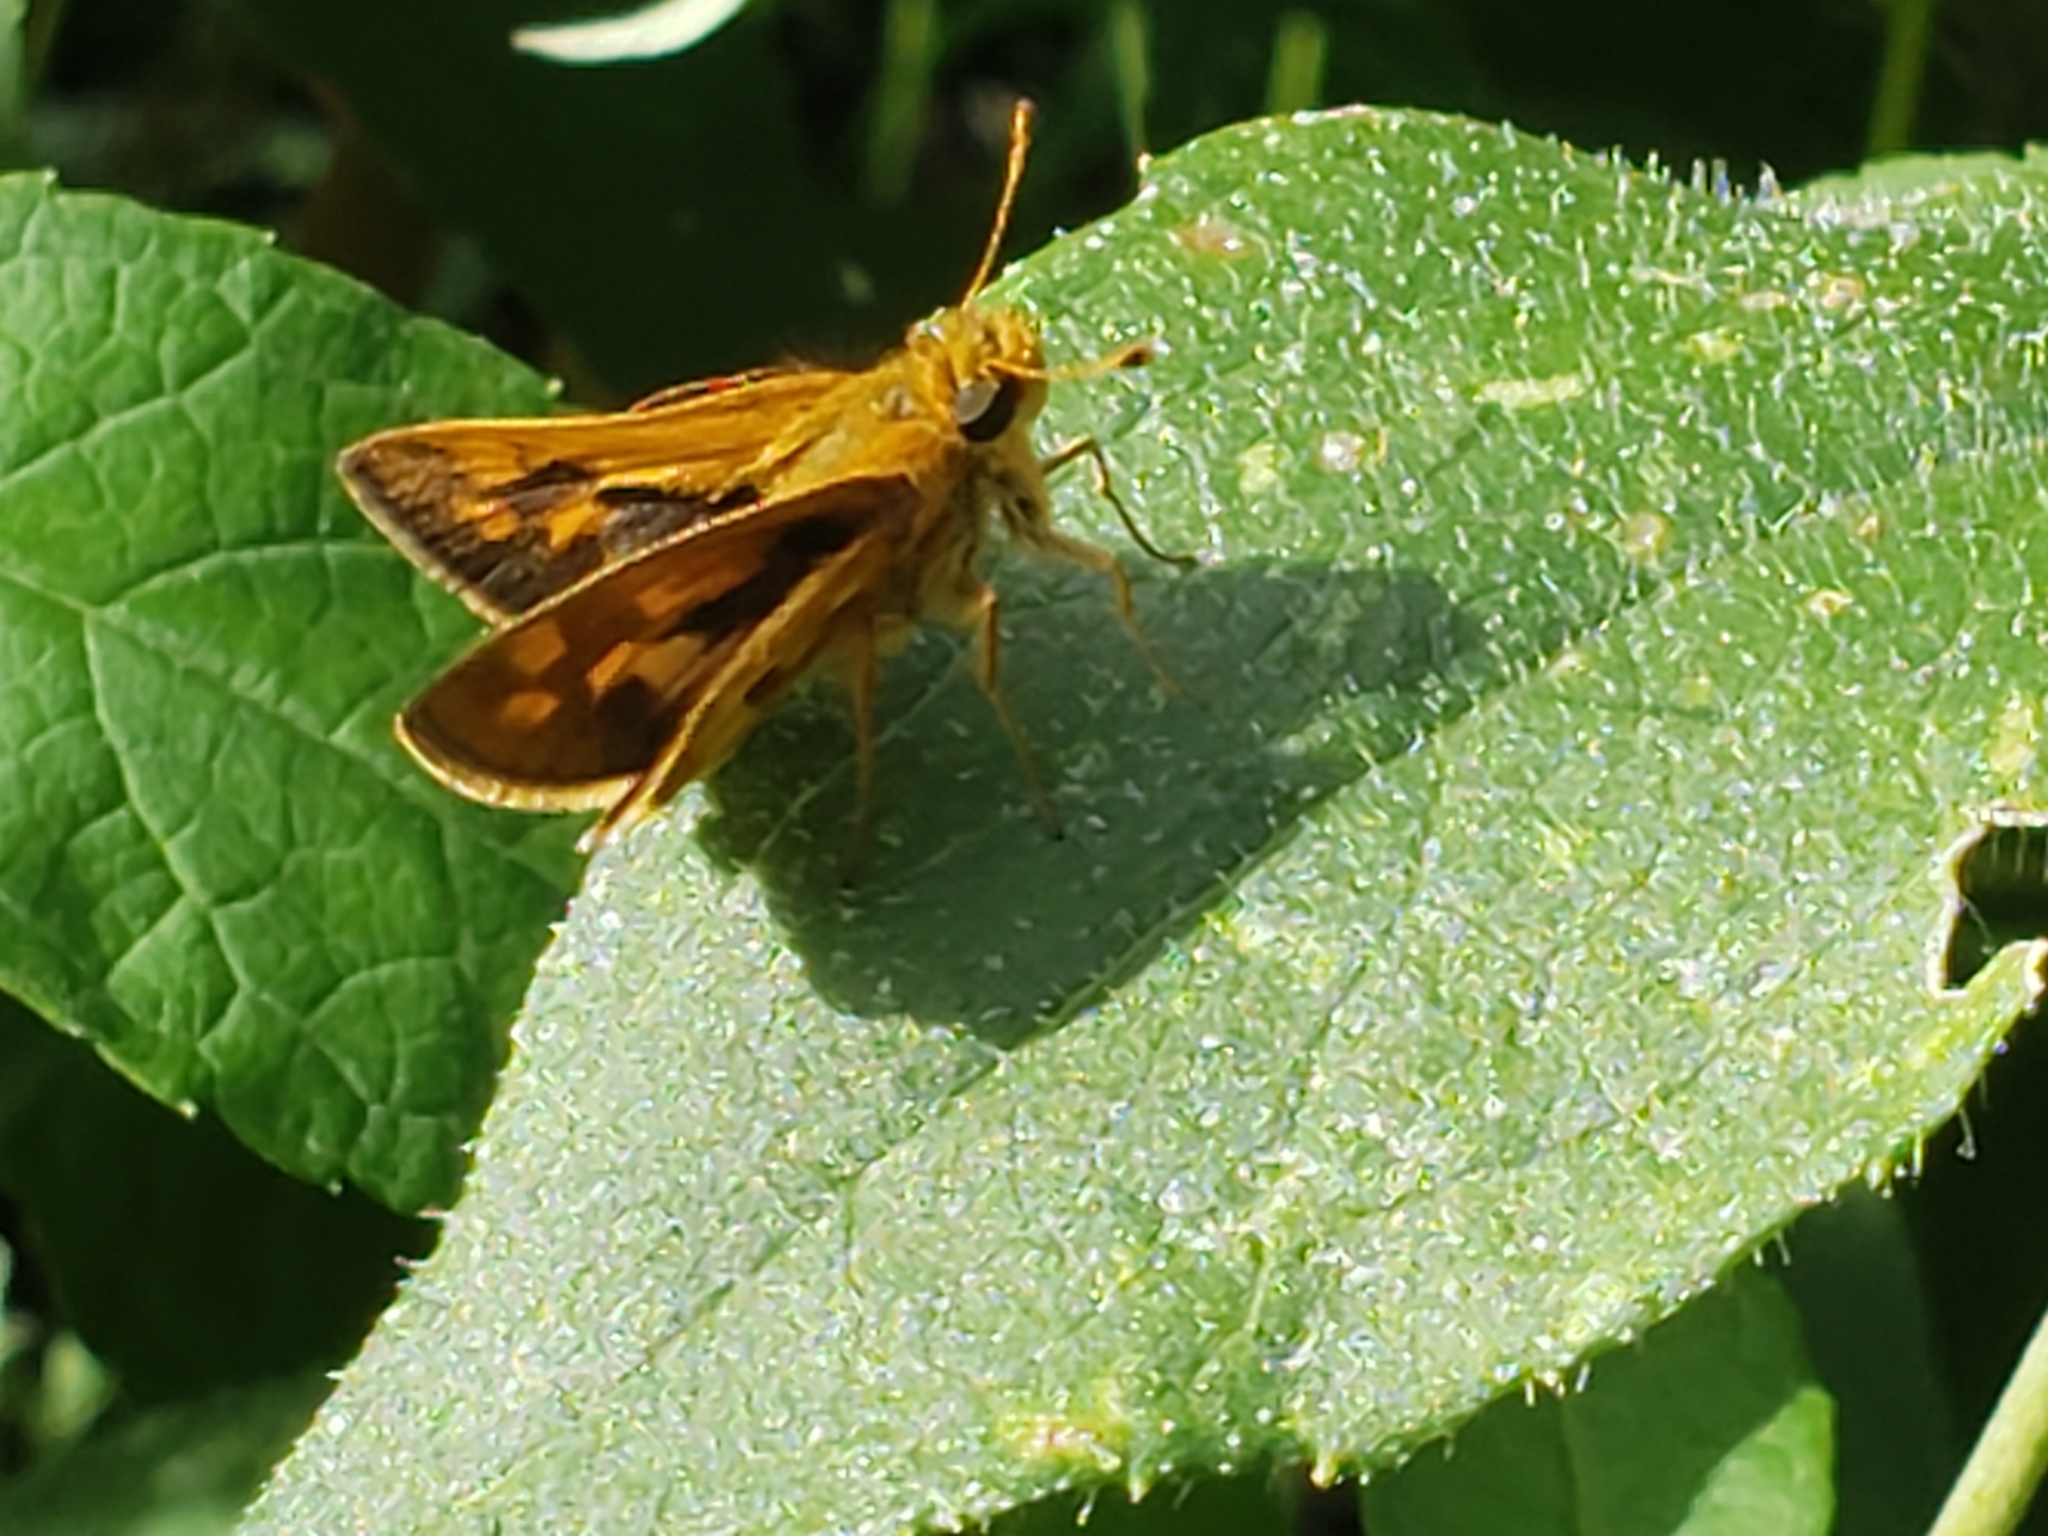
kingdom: Animalia
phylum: Arthropoda
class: Insecta
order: Lepidoptera
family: Hesperiidae
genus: Polites
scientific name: Polites coras
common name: Peck's skipper
